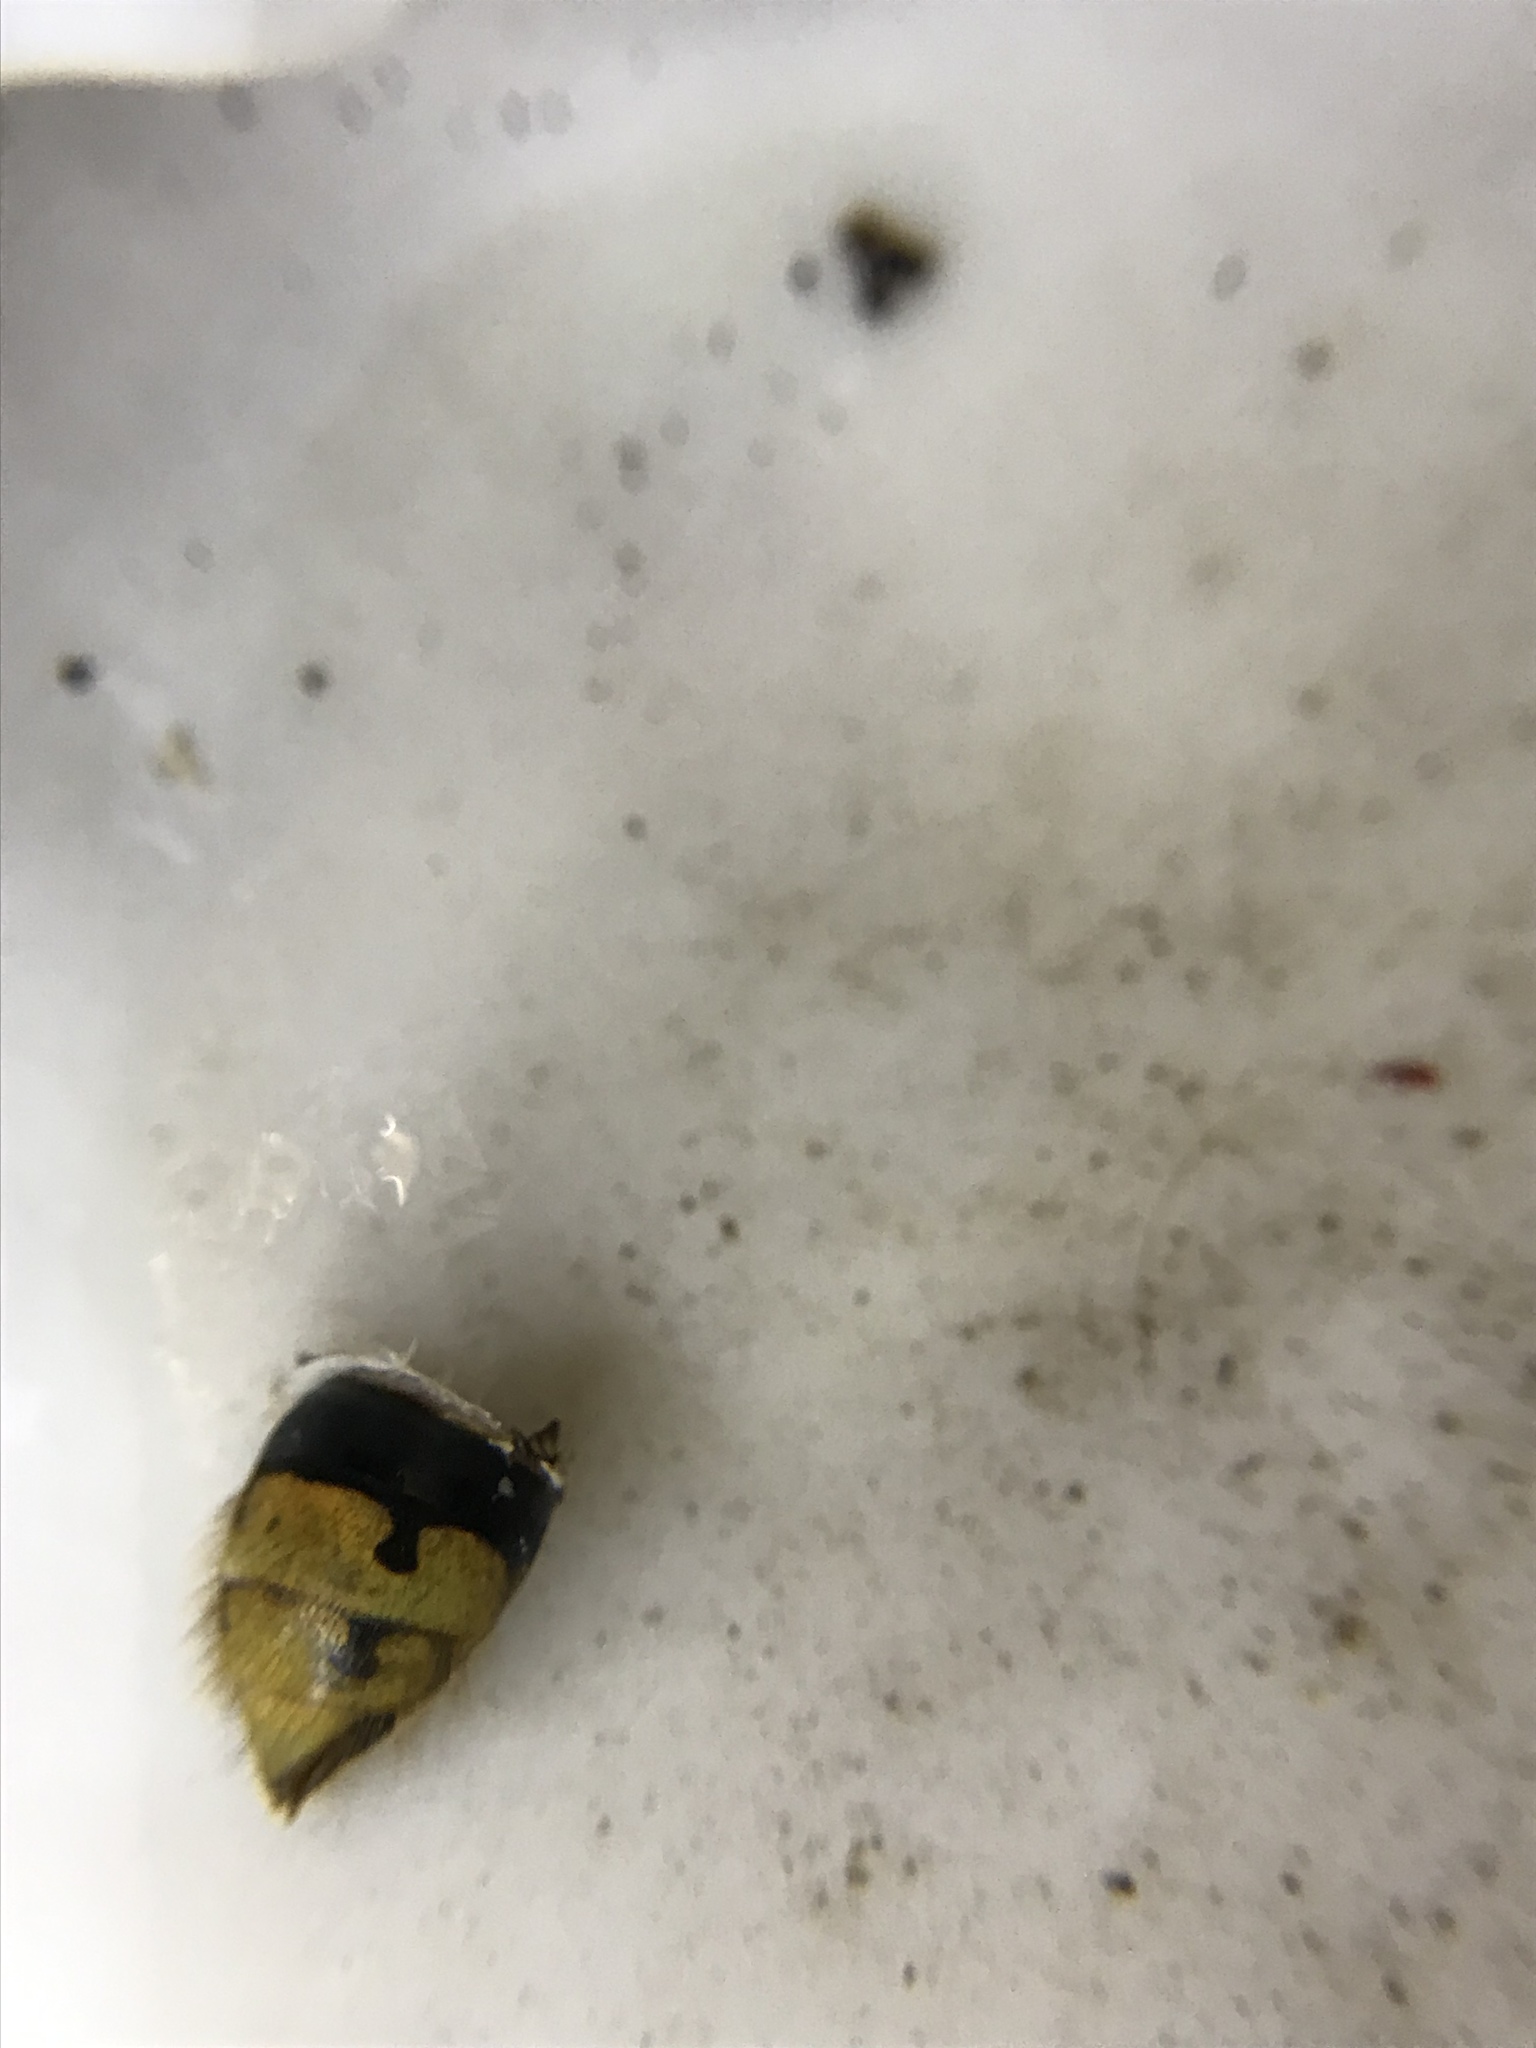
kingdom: Animalia
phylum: Arthropoda
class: Insecta
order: Hymenoptera
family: Vespidae
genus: Vespa
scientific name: Vespa crabro
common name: Hornet
